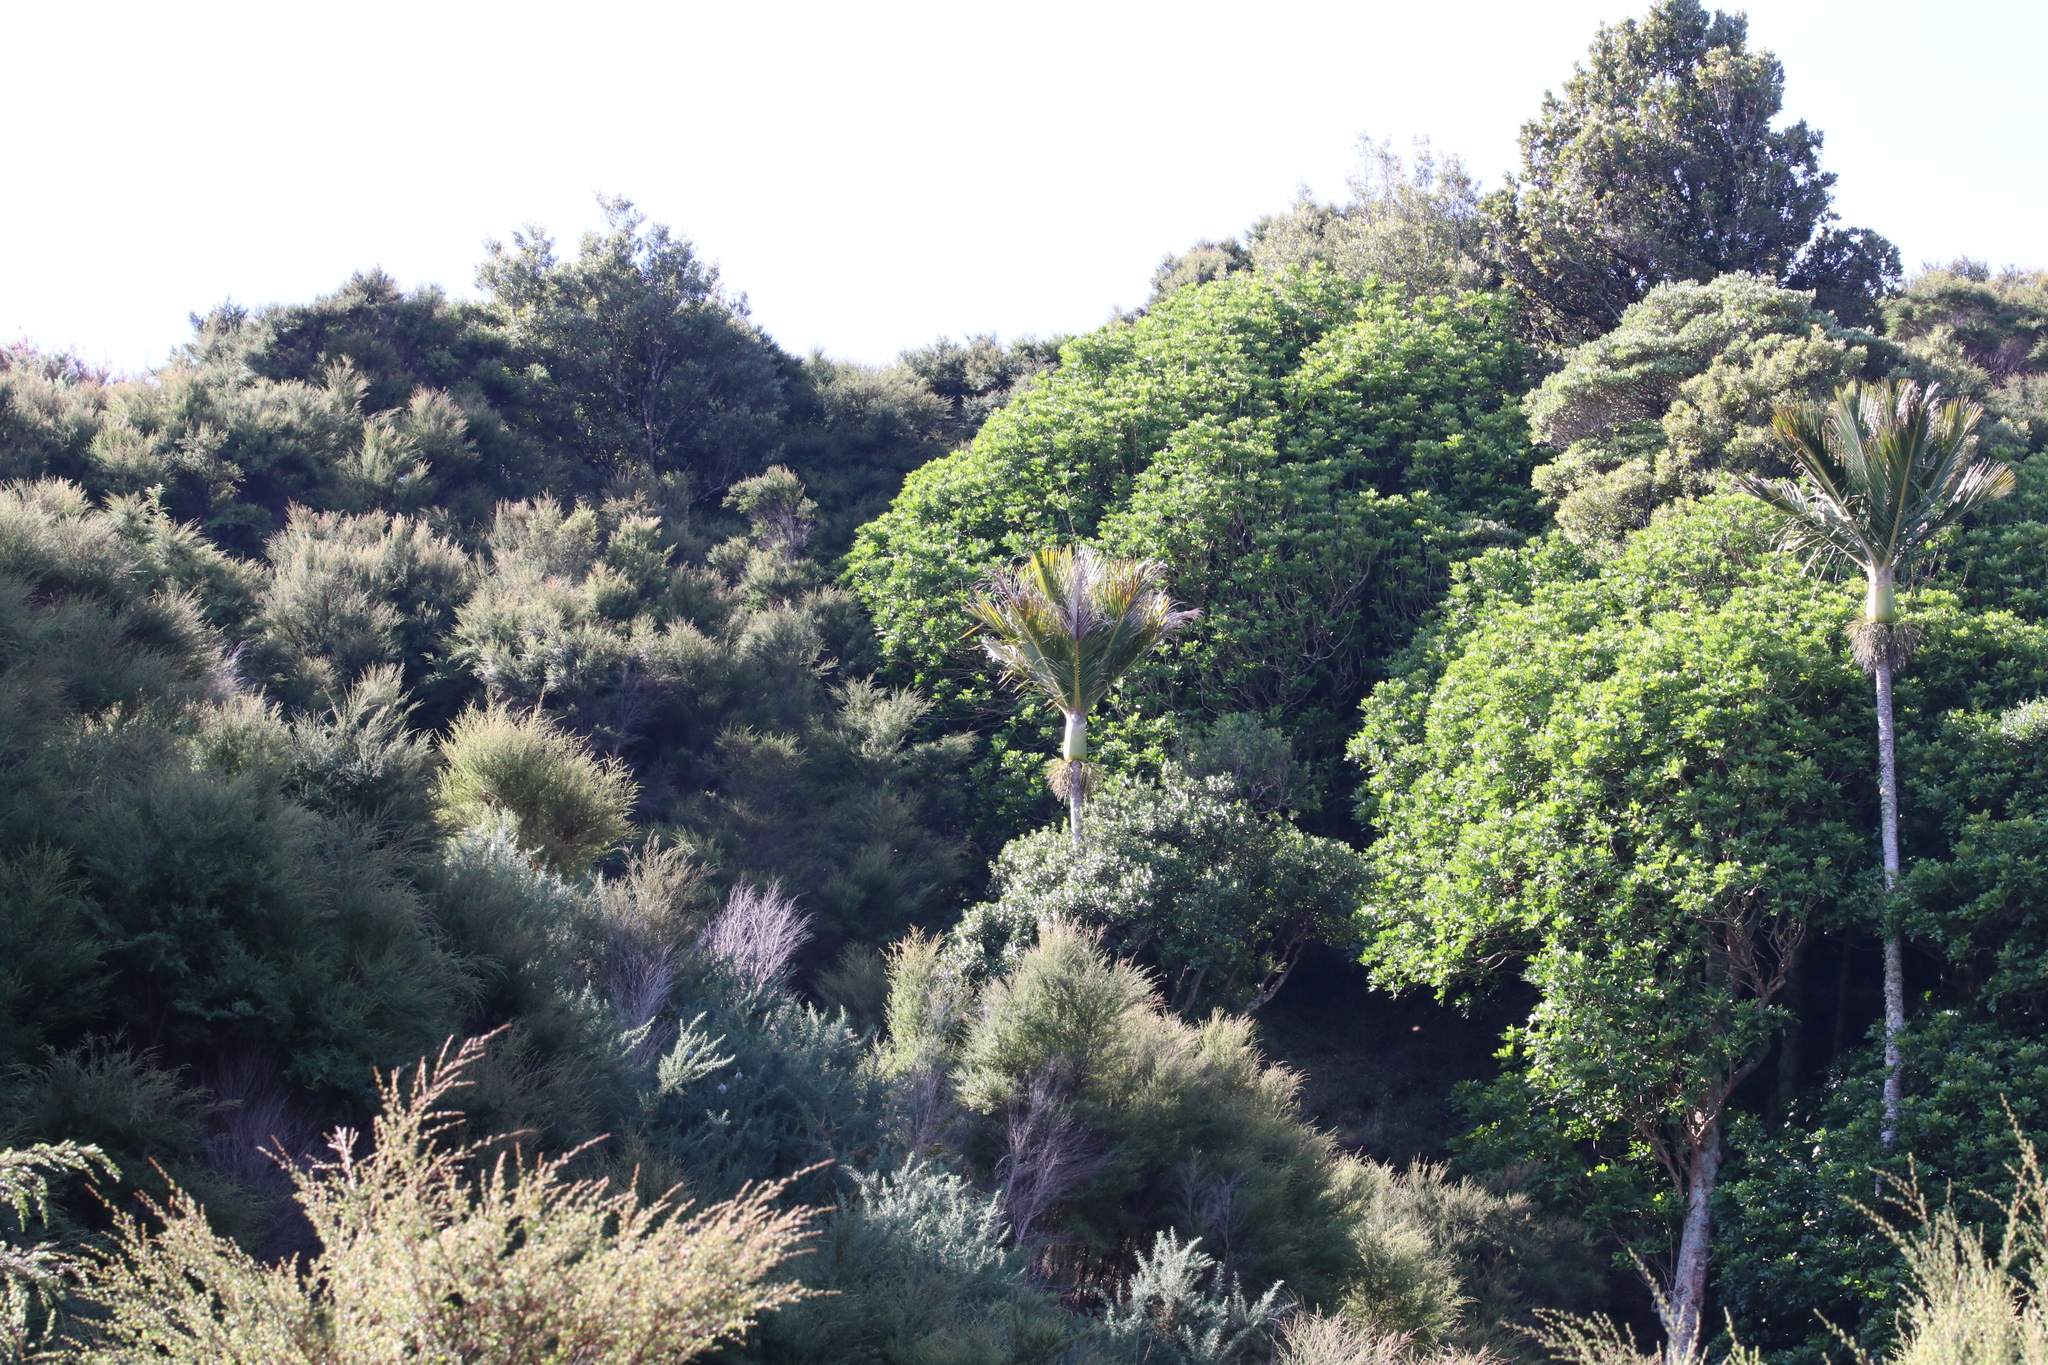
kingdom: Plantae
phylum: Tracheophyta
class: Liliopsida
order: Arecales
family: Arecaceae
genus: Rhopalostylis
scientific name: Rhopalostylis sapida
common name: Feather-duster palm
